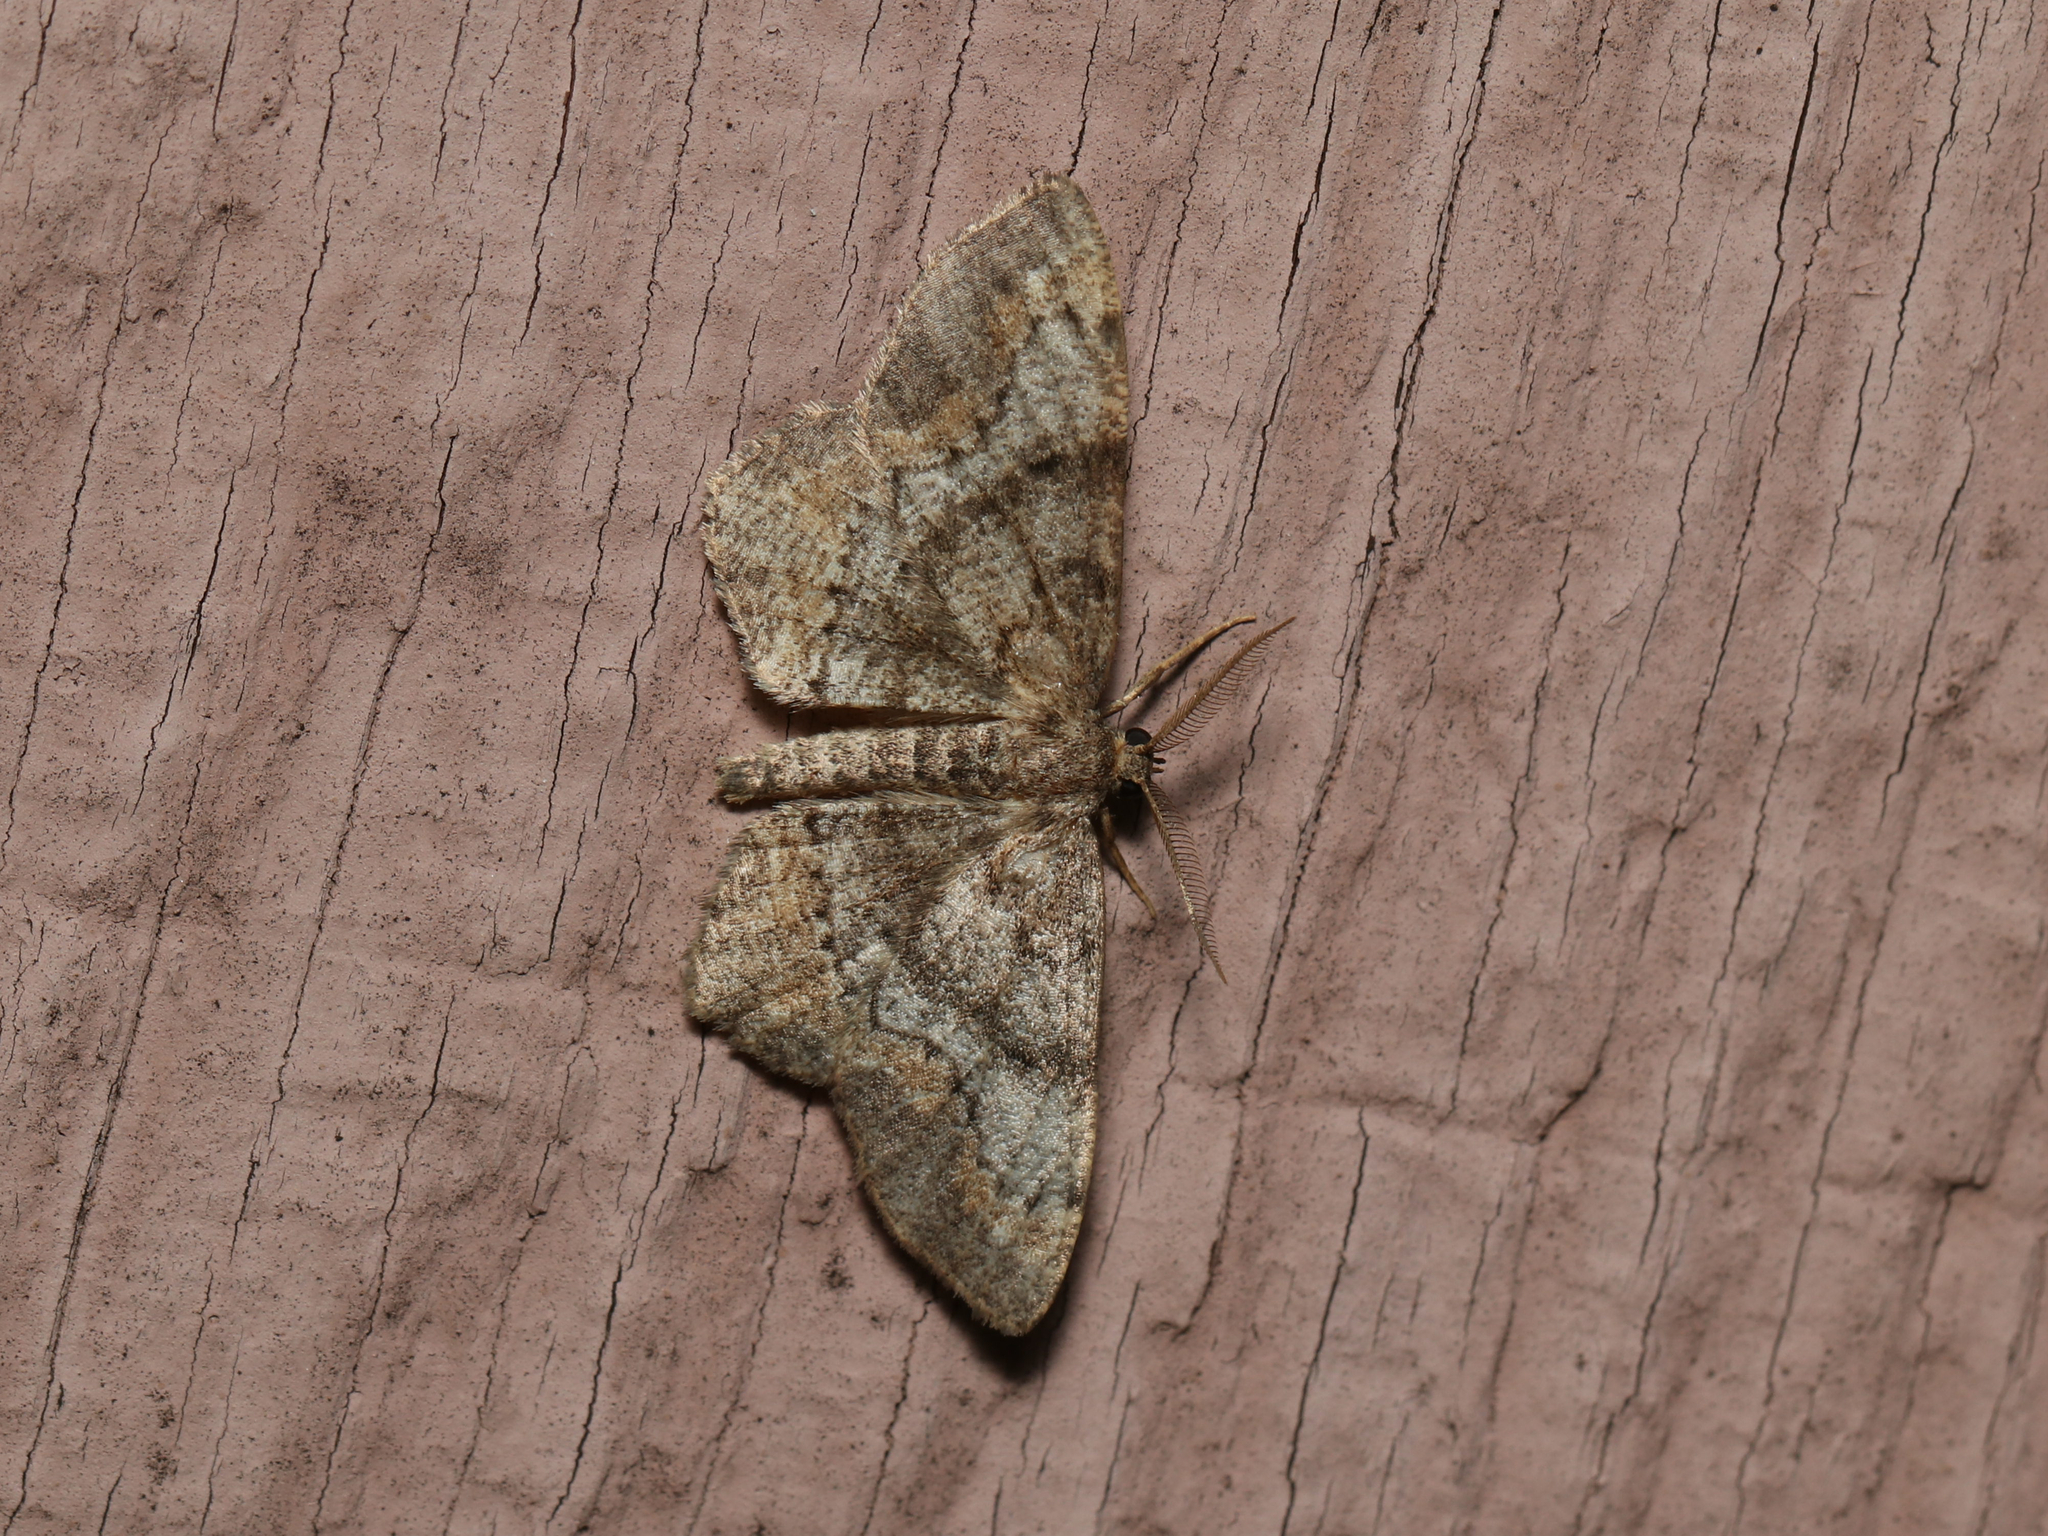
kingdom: Animalia
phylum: Arthropoda
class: Insecta
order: Lepidoptera
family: Geometridae
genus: Hypagyrtis
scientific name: Hypagyrtis piniata
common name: Pine measuringworm
